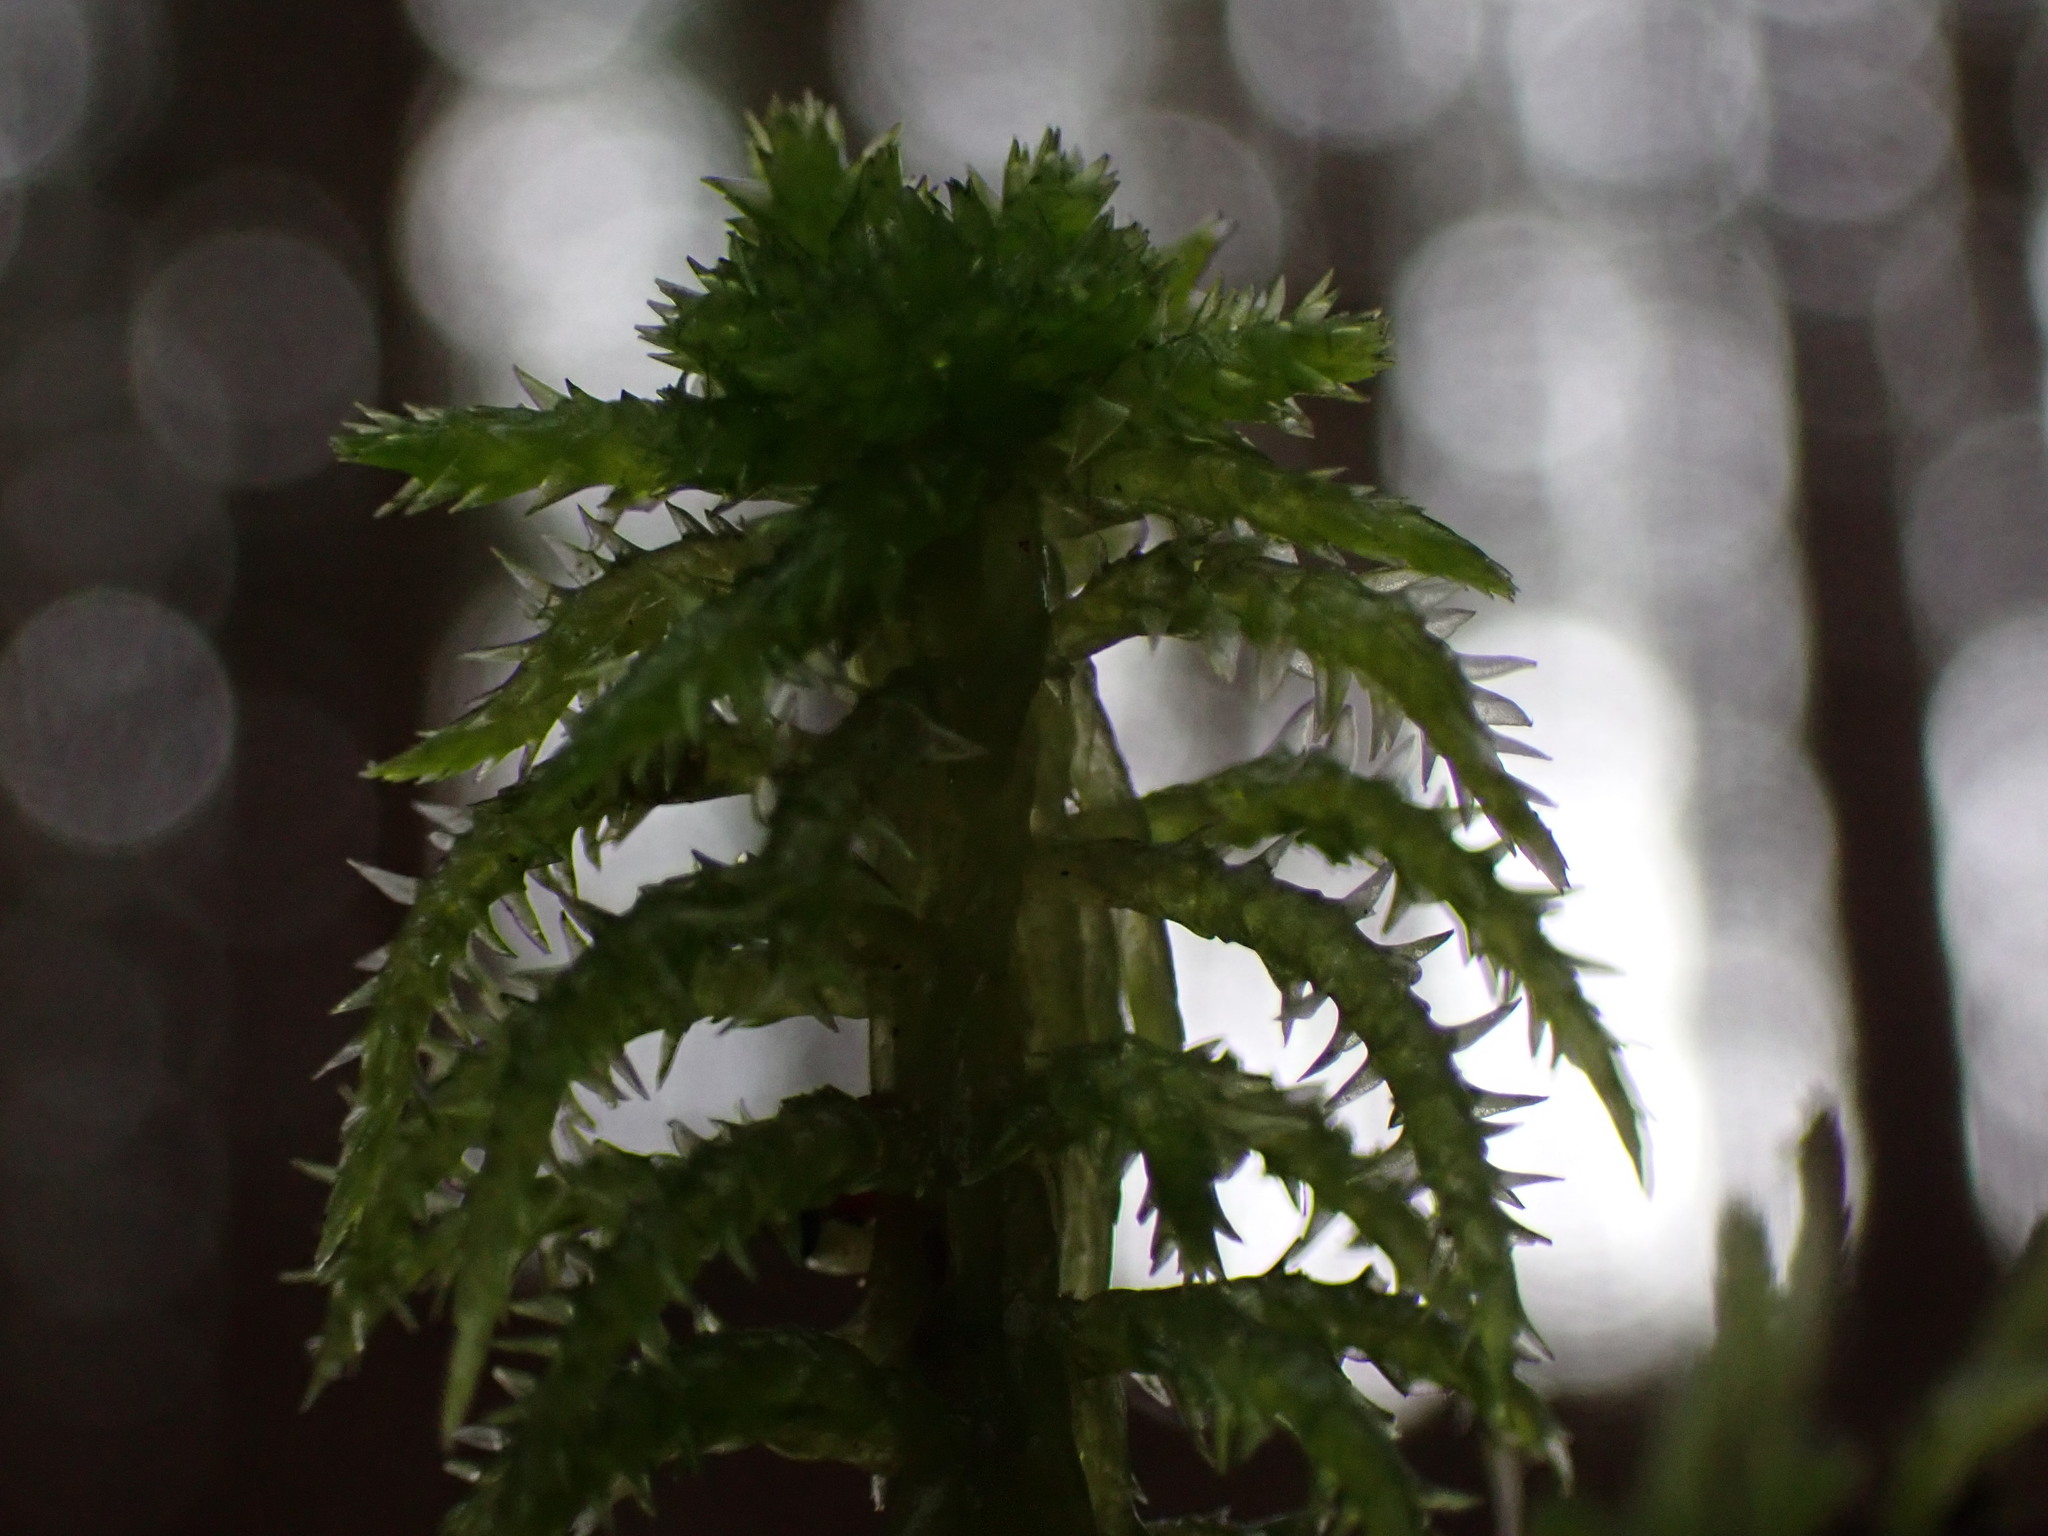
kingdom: Plantae
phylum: Bryophyta
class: Sphagnopsida
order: Sphagnales
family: Sphagnaceae
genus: Sphagnum
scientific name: Sphagnum squarrosum
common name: Shaggy peat moss
